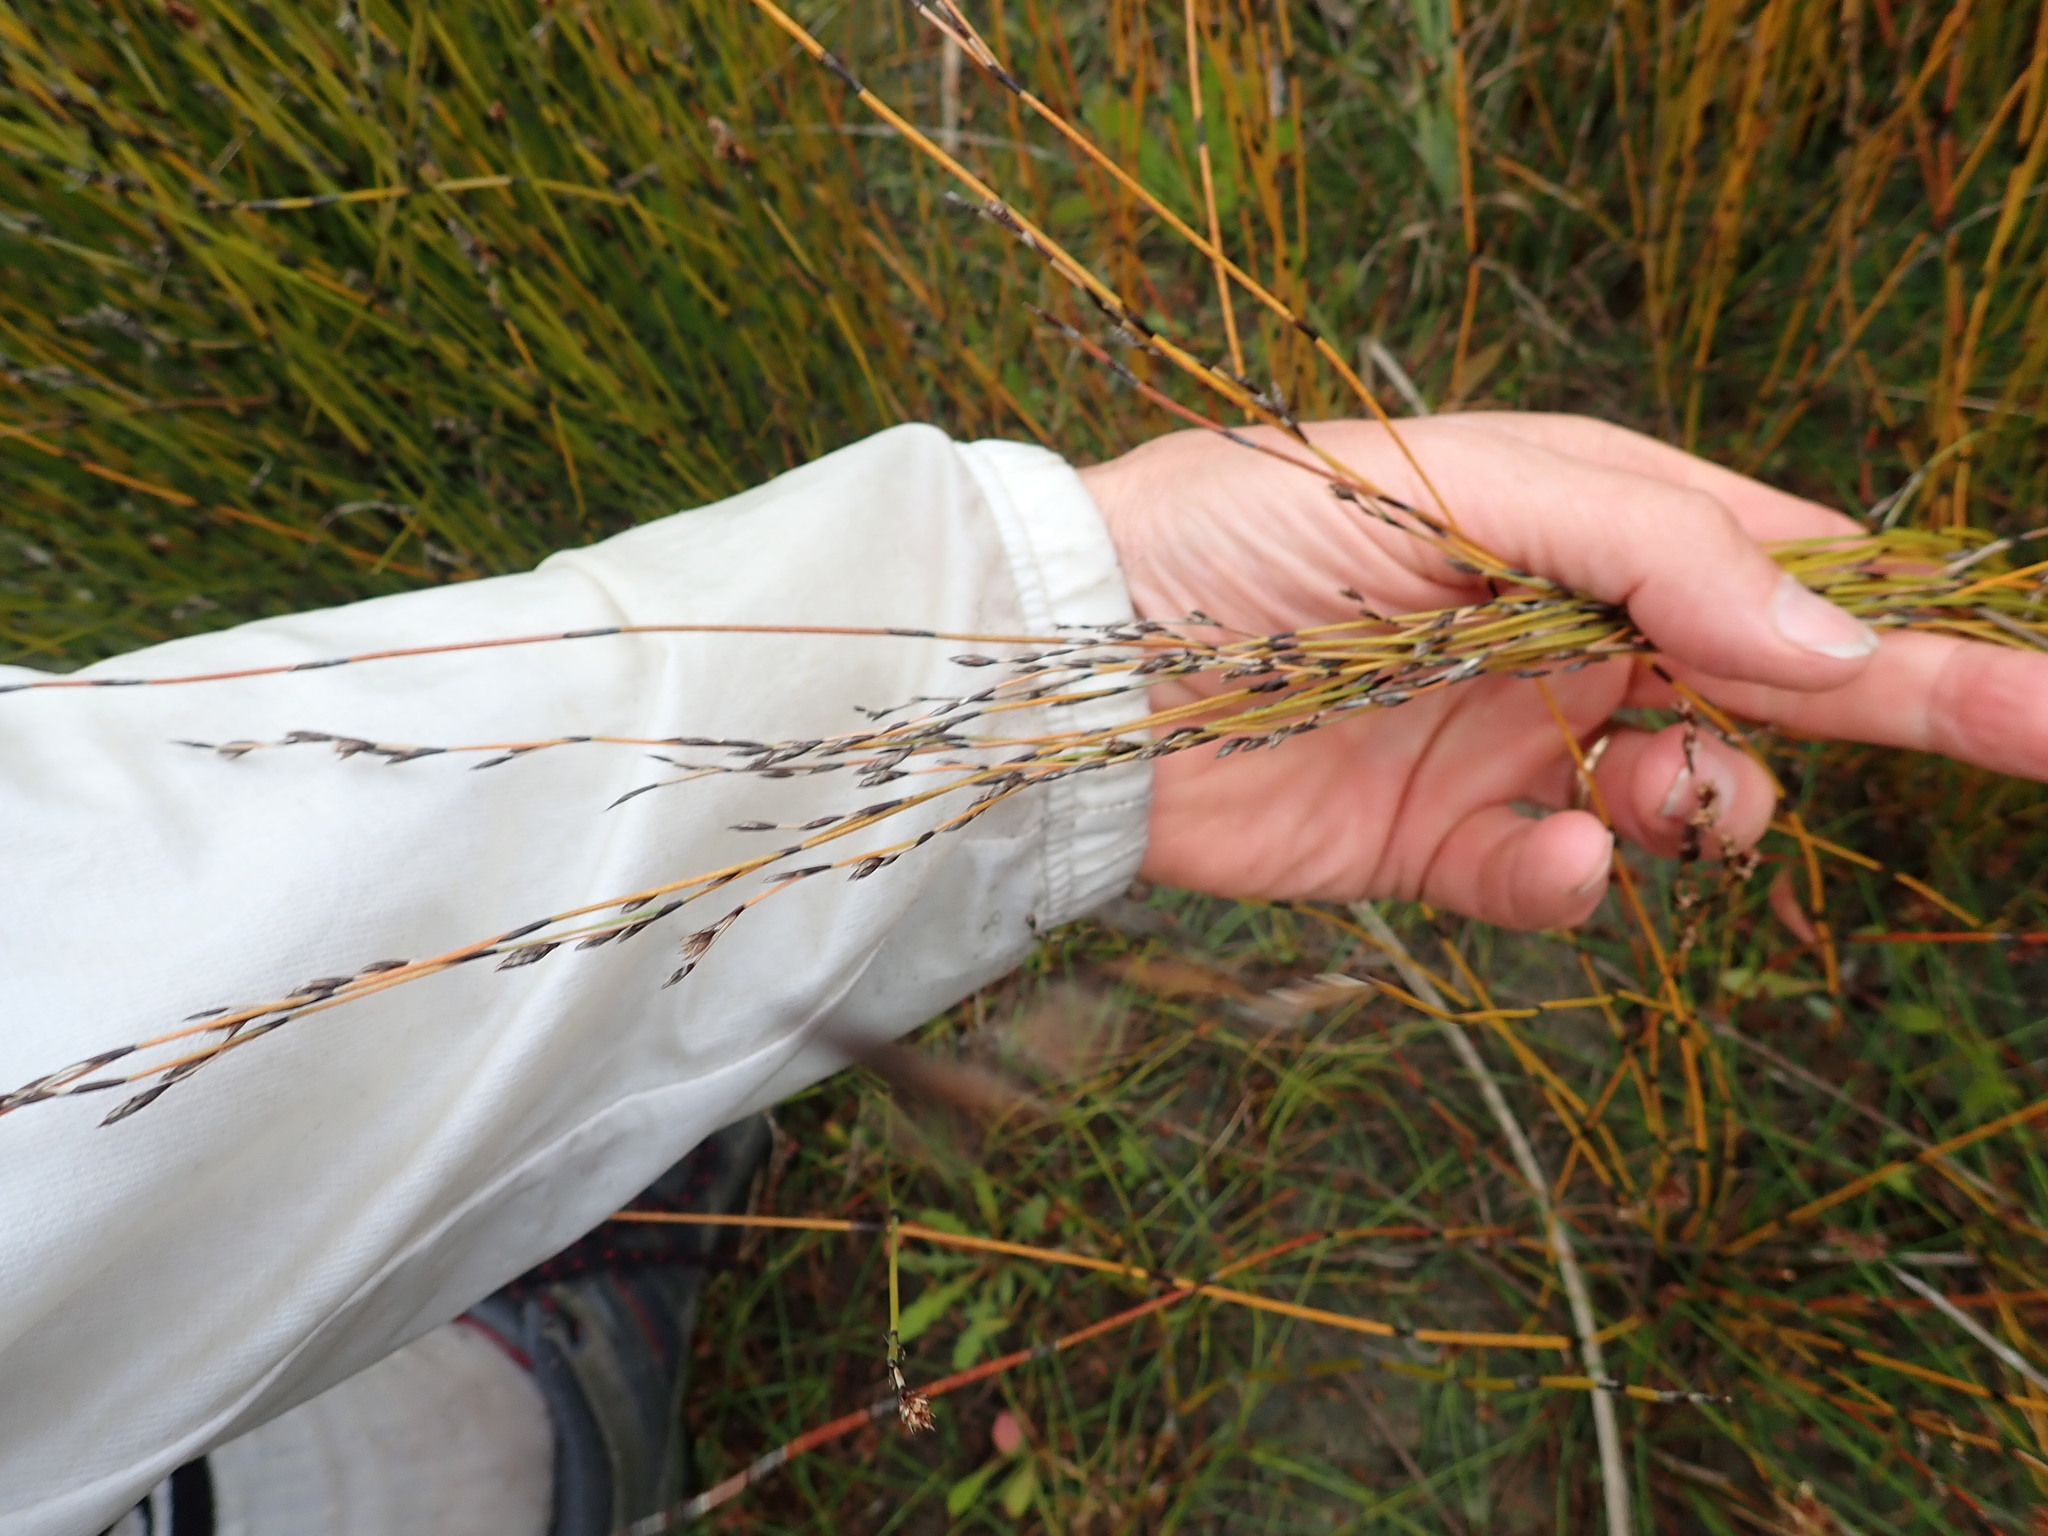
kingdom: Plantae
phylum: Tracheophyta
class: Liliopsida
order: Poales
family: Restionaceae
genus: Apodasmia
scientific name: Apodasmia similis
